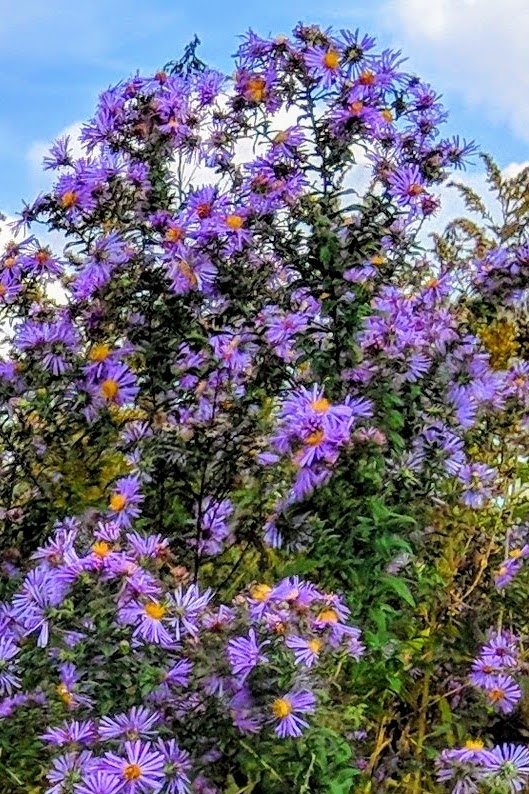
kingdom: Plantae
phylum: Tracheophyta
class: Magnoliopsida
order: Asterales
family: Asteraceae
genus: Symphyotrichum
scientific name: Symphyotrichum novae-angliae
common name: Michaelmas daisy
